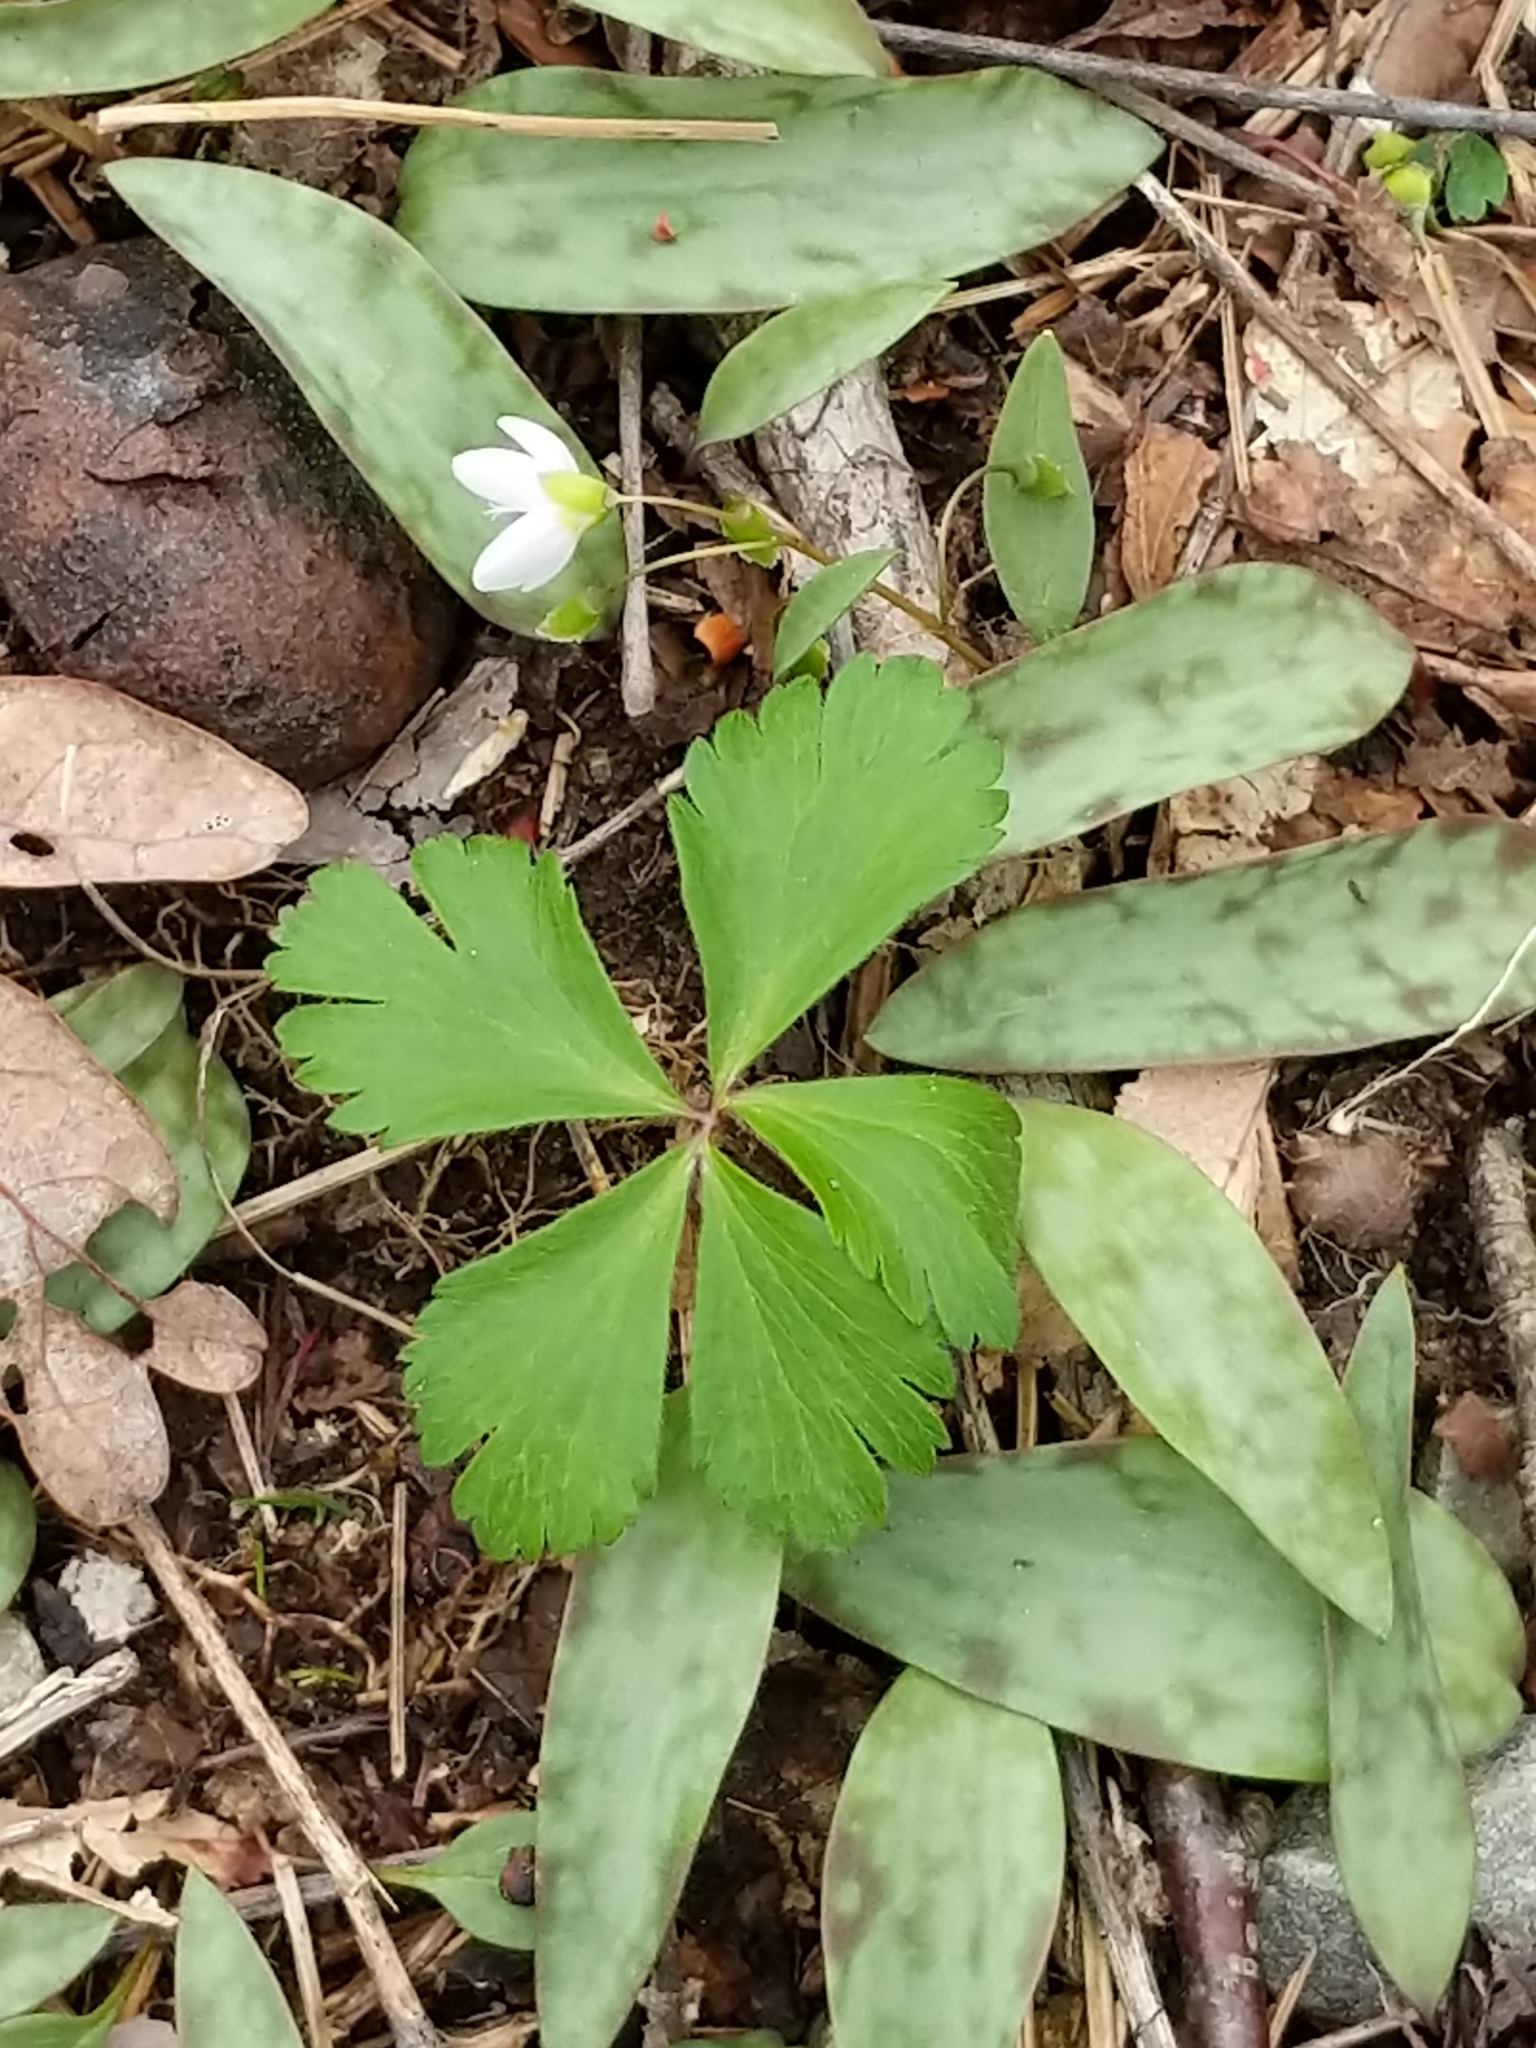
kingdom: Plantae
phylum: Tracheophyta
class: Magnoliopsida
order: Ranunculales
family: Ranunculaceae
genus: Anemone
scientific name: Anemone quinquefolia
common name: Wood anemone
